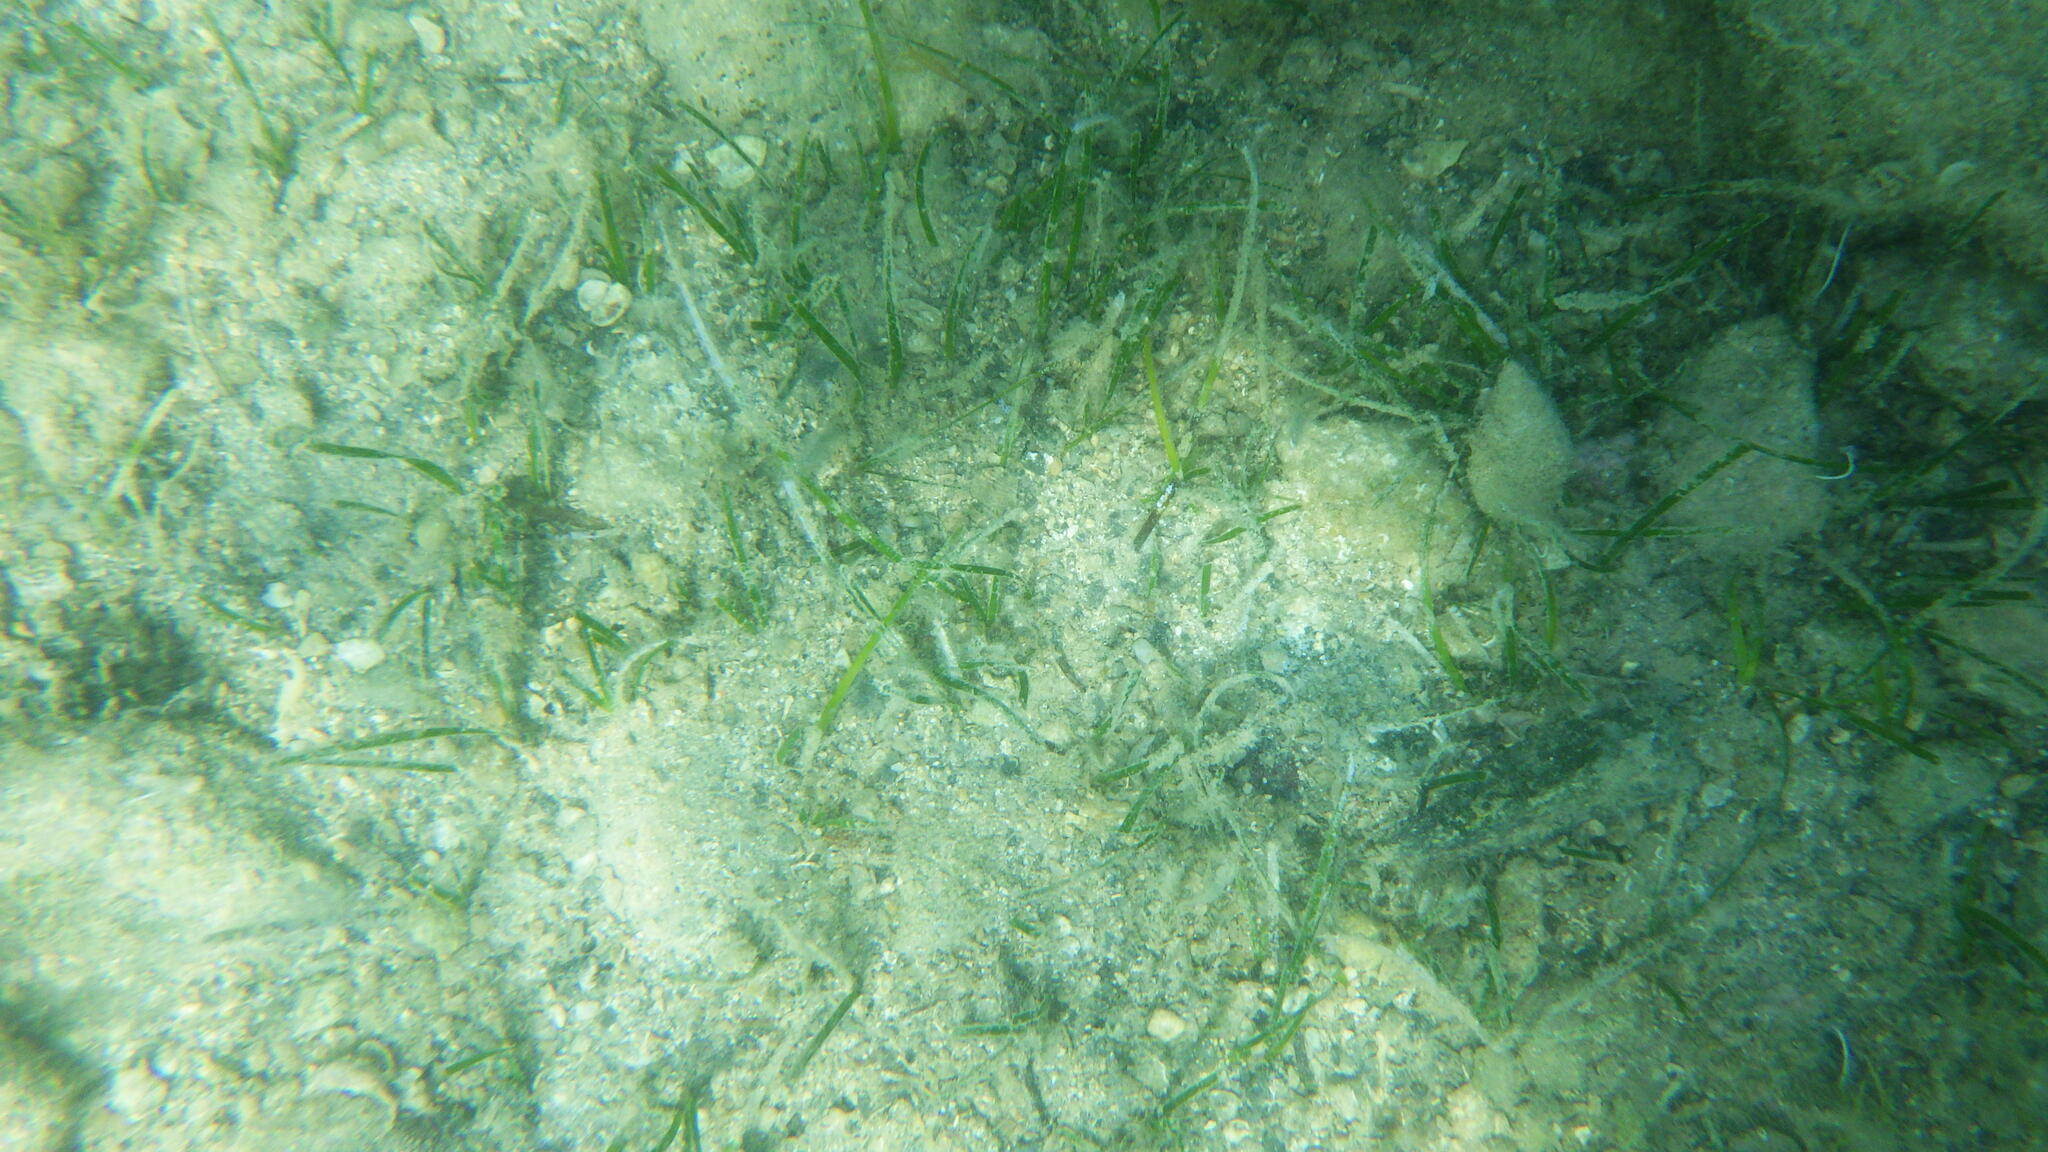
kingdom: Plantae
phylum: Tracheophyta
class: Liliopsida
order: Alismatales
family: Cymodoceaceae
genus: Cymodocea
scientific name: Cymodocea nodosa
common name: Slender seagrass
